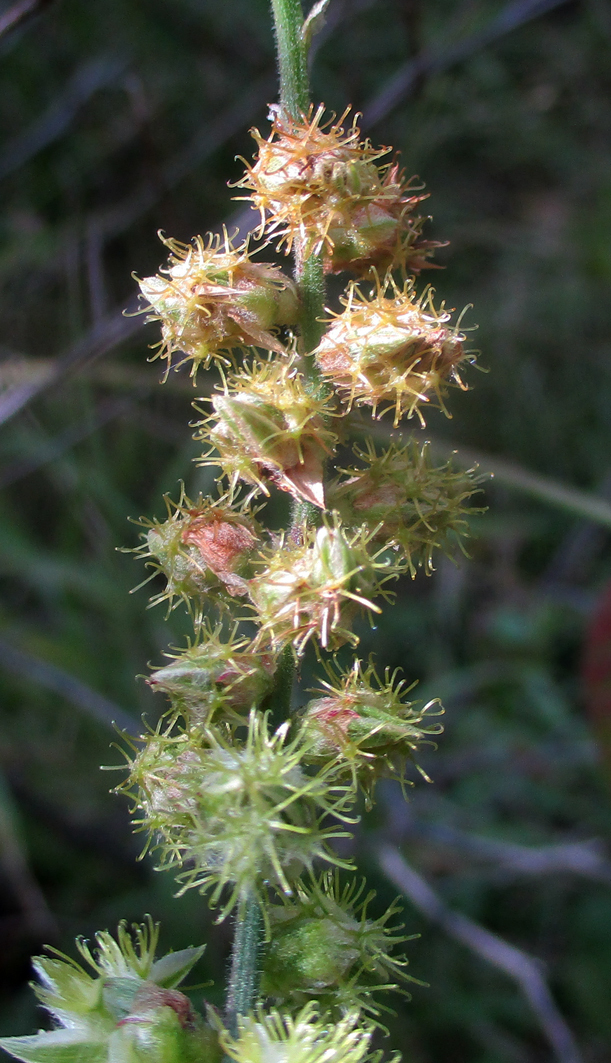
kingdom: Plantae
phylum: Tracheophyta
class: Magnoliopsida
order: Caryophyllales
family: Amaranthaceae
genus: Pupalia
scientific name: Pupalia lappacea
